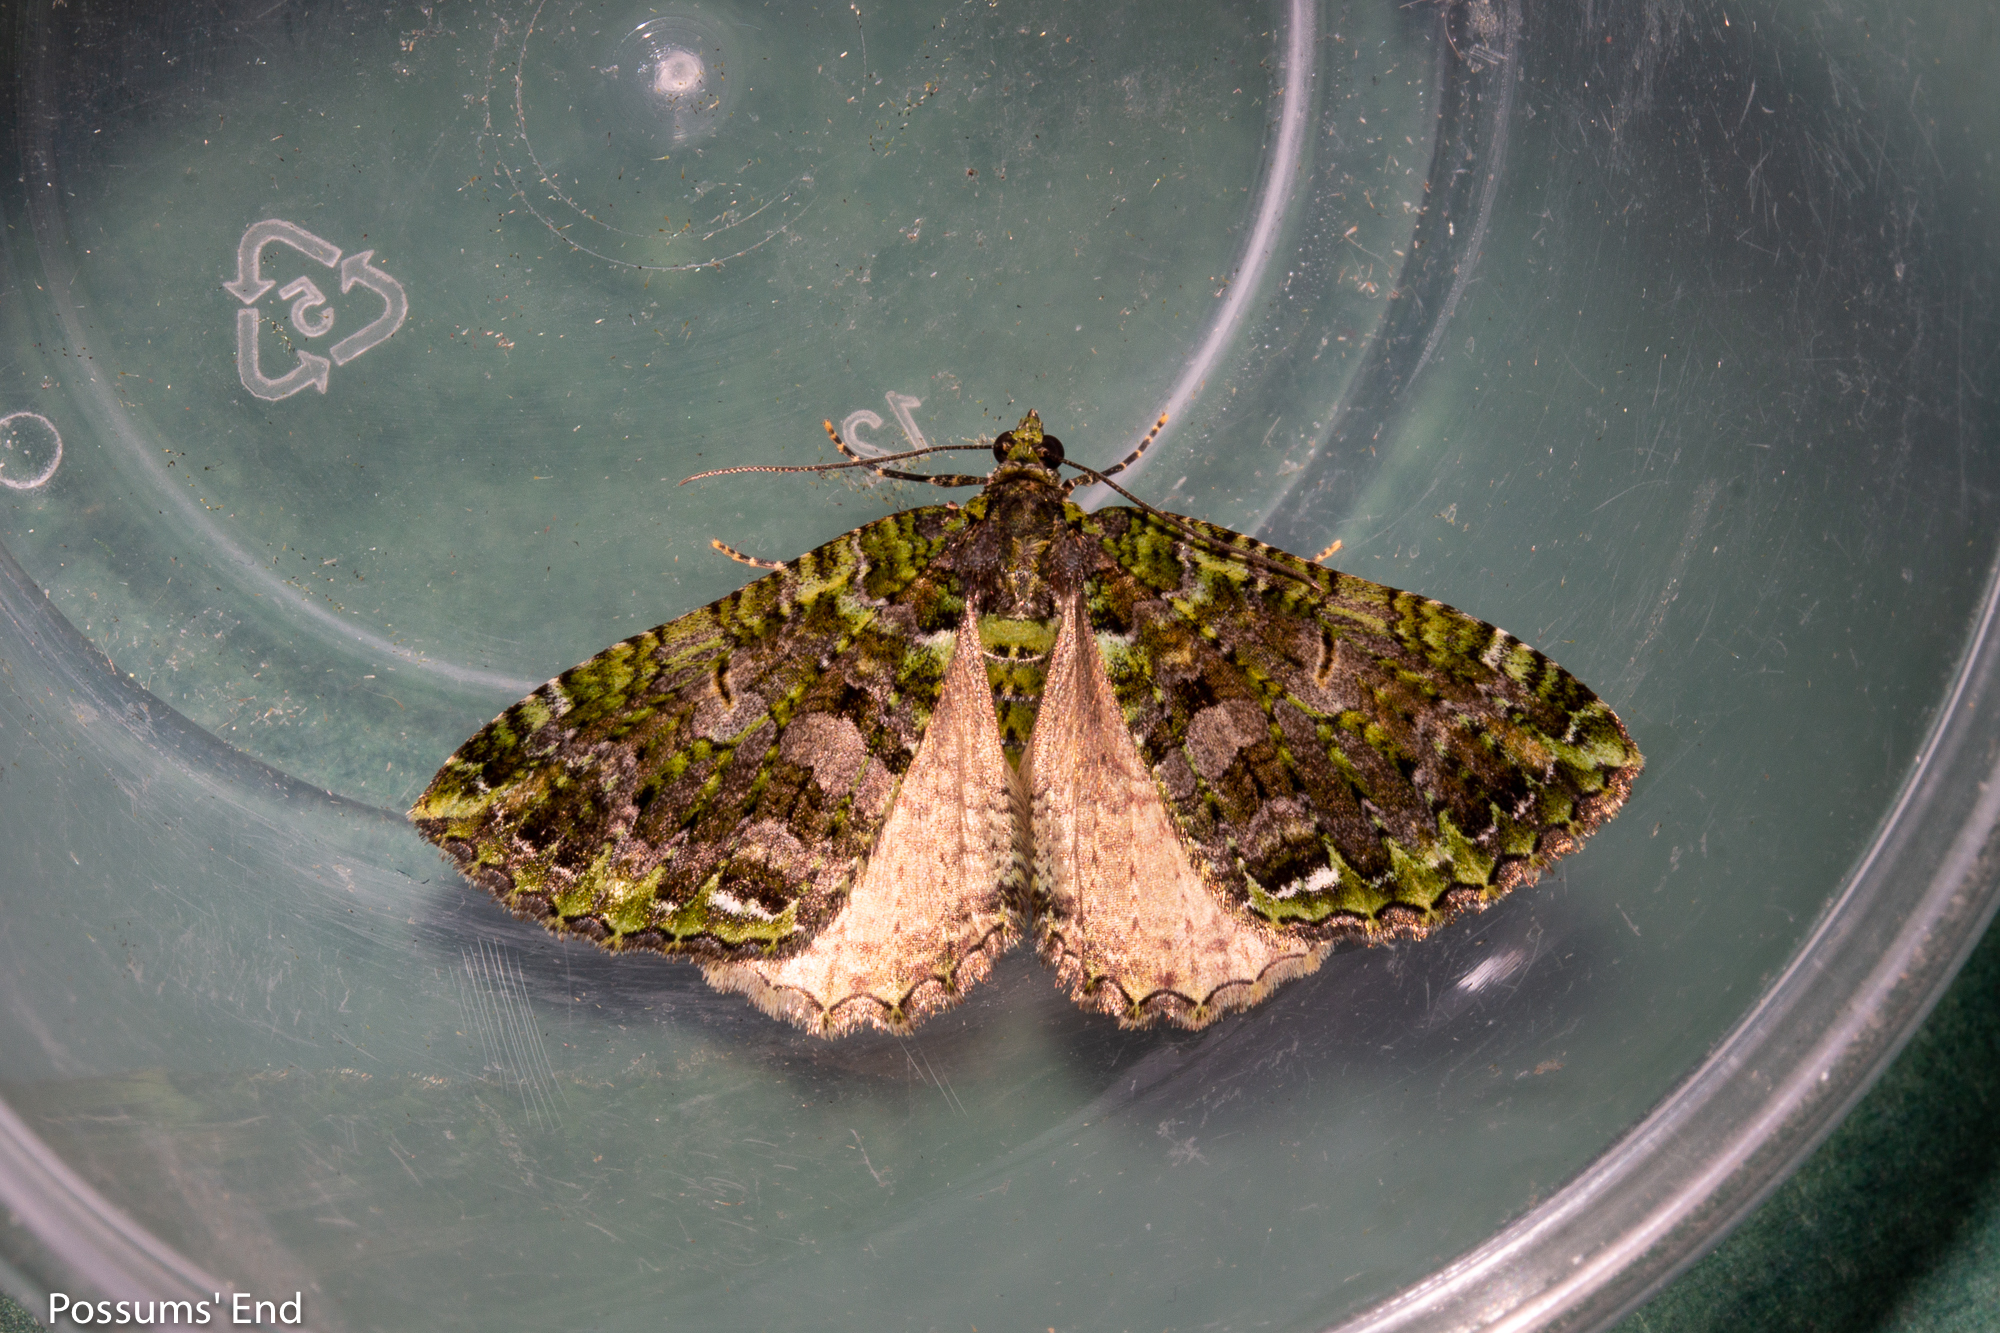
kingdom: Animalia
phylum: Arthropoda
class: Insecta
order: Lepidoptera
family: Geometridae
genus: Austrocidaria
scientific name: Austrocidaria similata
